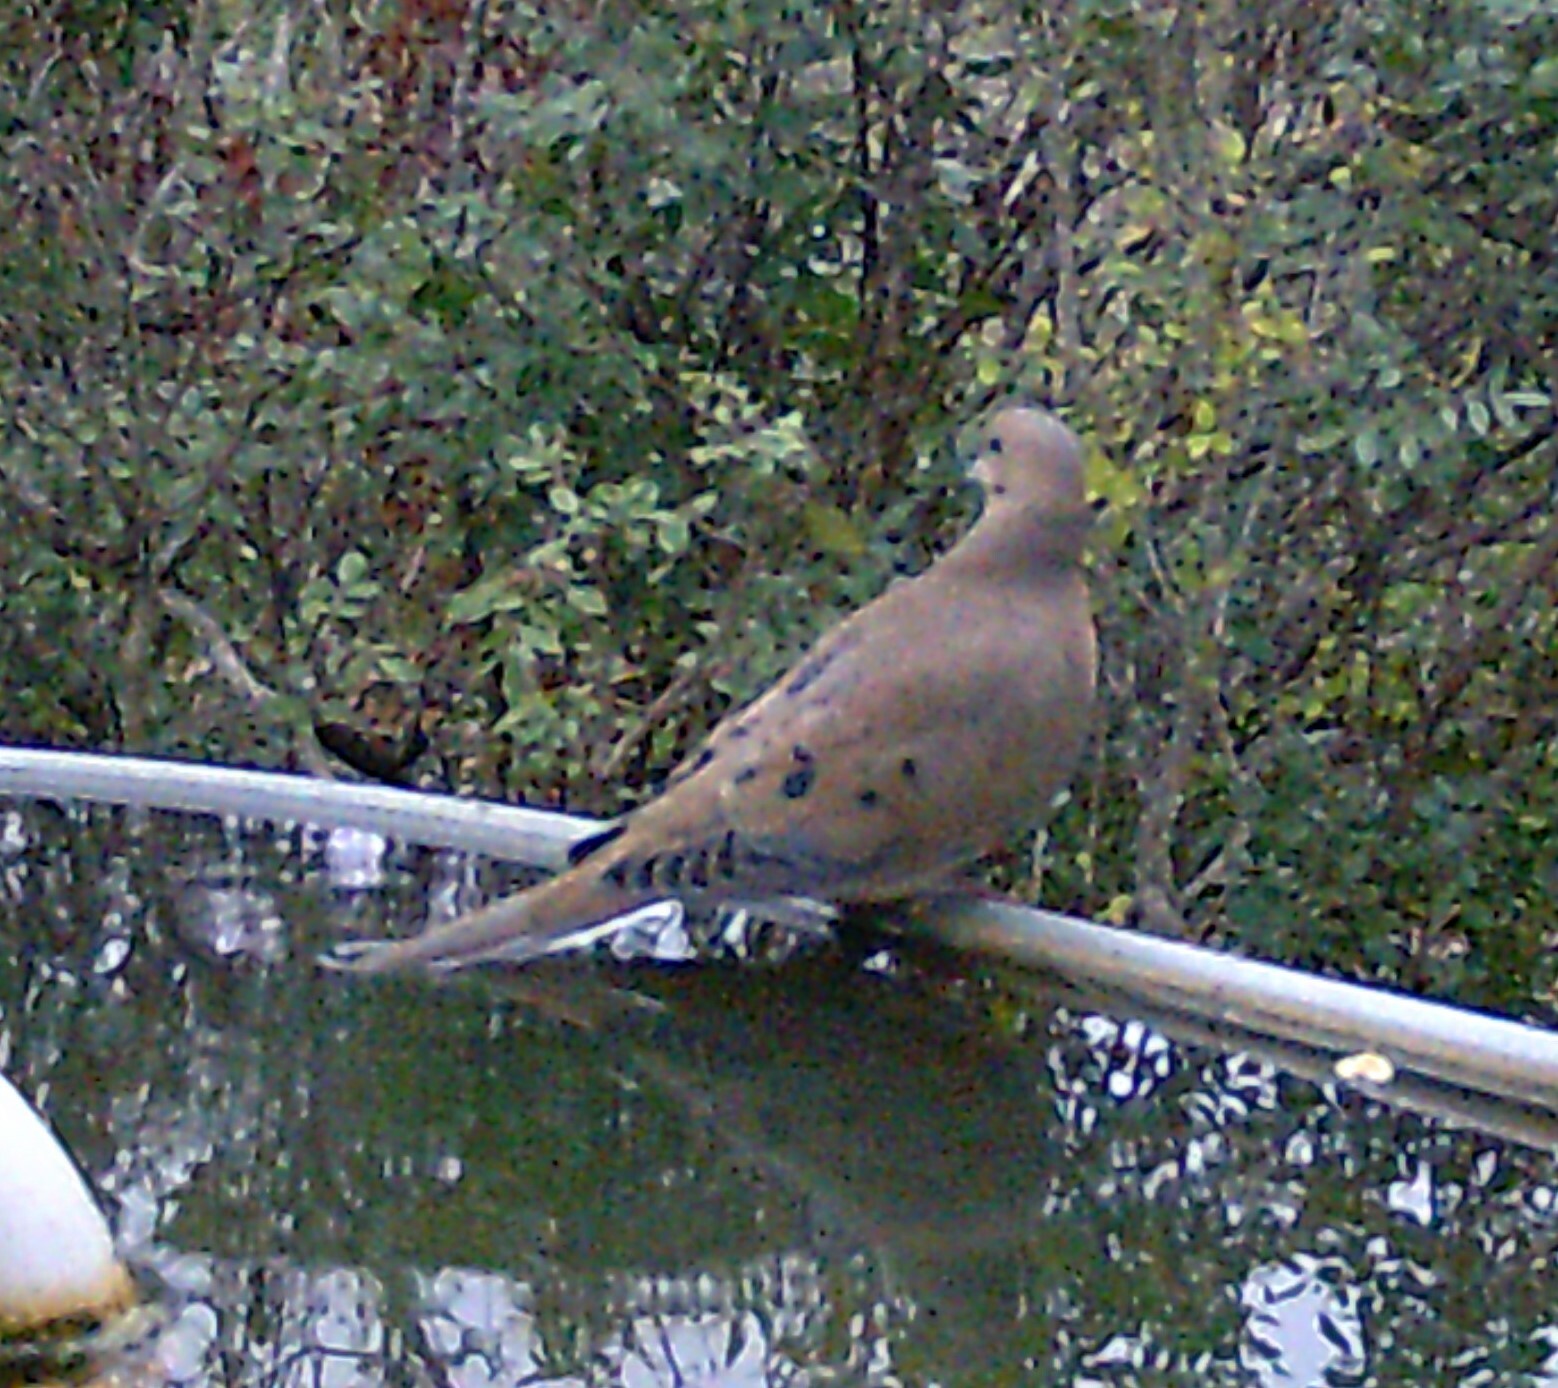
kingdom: Animalia
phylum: Chordata
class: Aves
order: Columbiformes
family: Columbidae
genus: Zenaida
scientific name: Zenaida macroura
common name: Mourning dove
